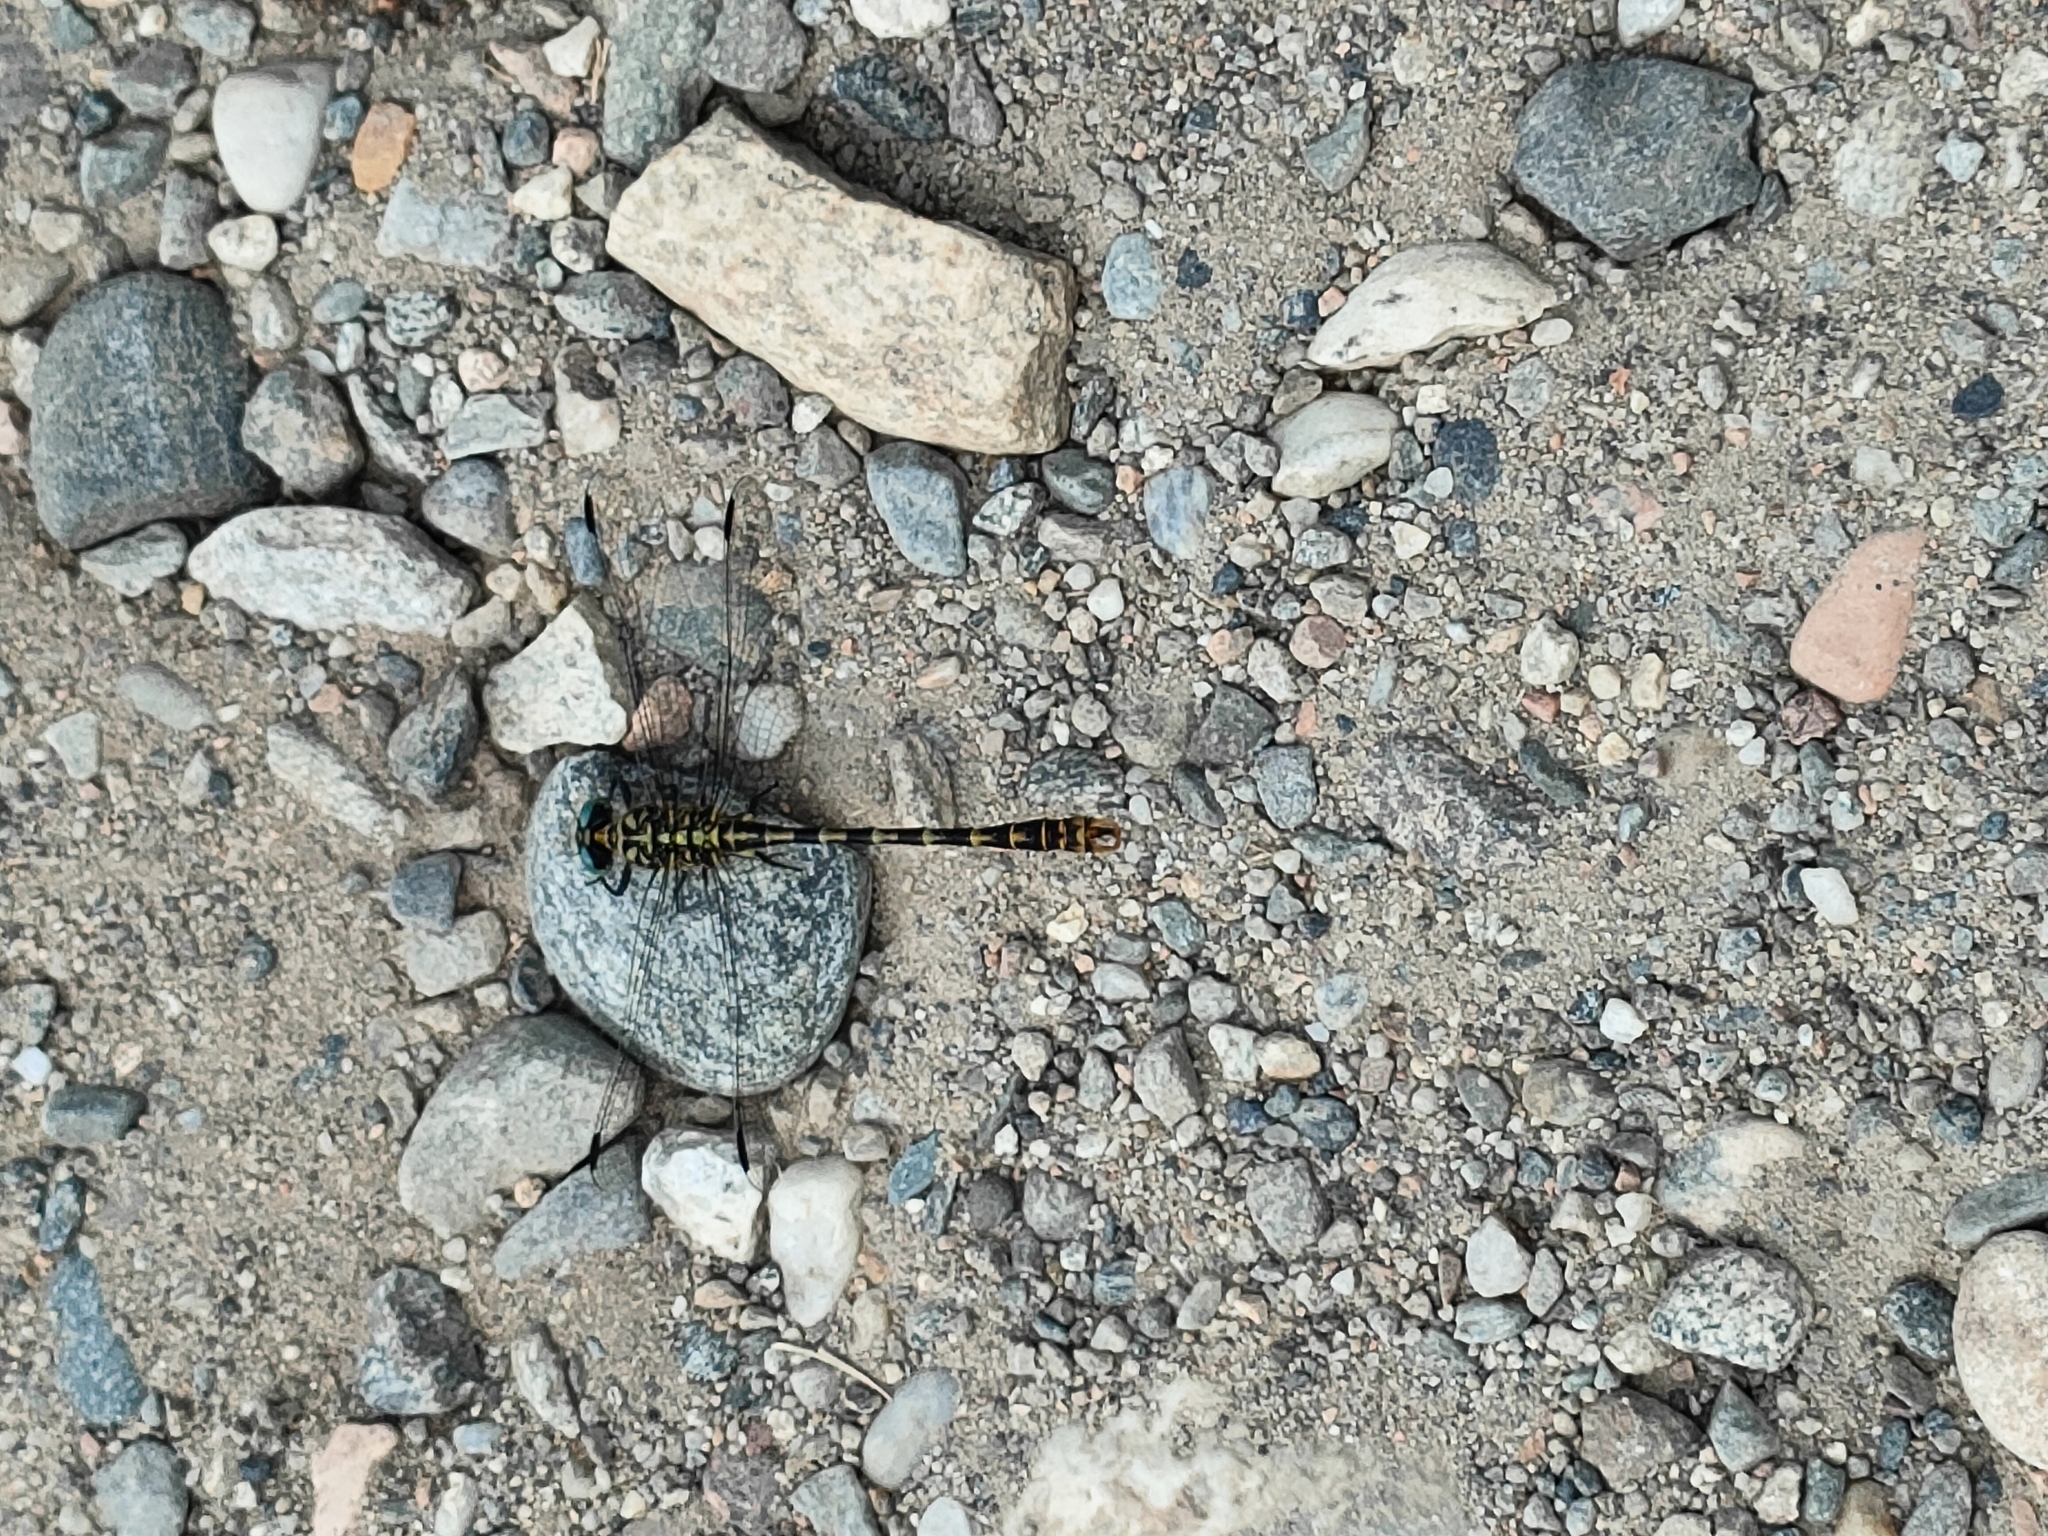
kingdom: Animalia
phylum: Arthropoda
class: Insecta
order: Odonata
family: Gomphidae
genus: Onychogomphus
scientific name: Onychogomphus forcipatus
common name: Small pincertail
